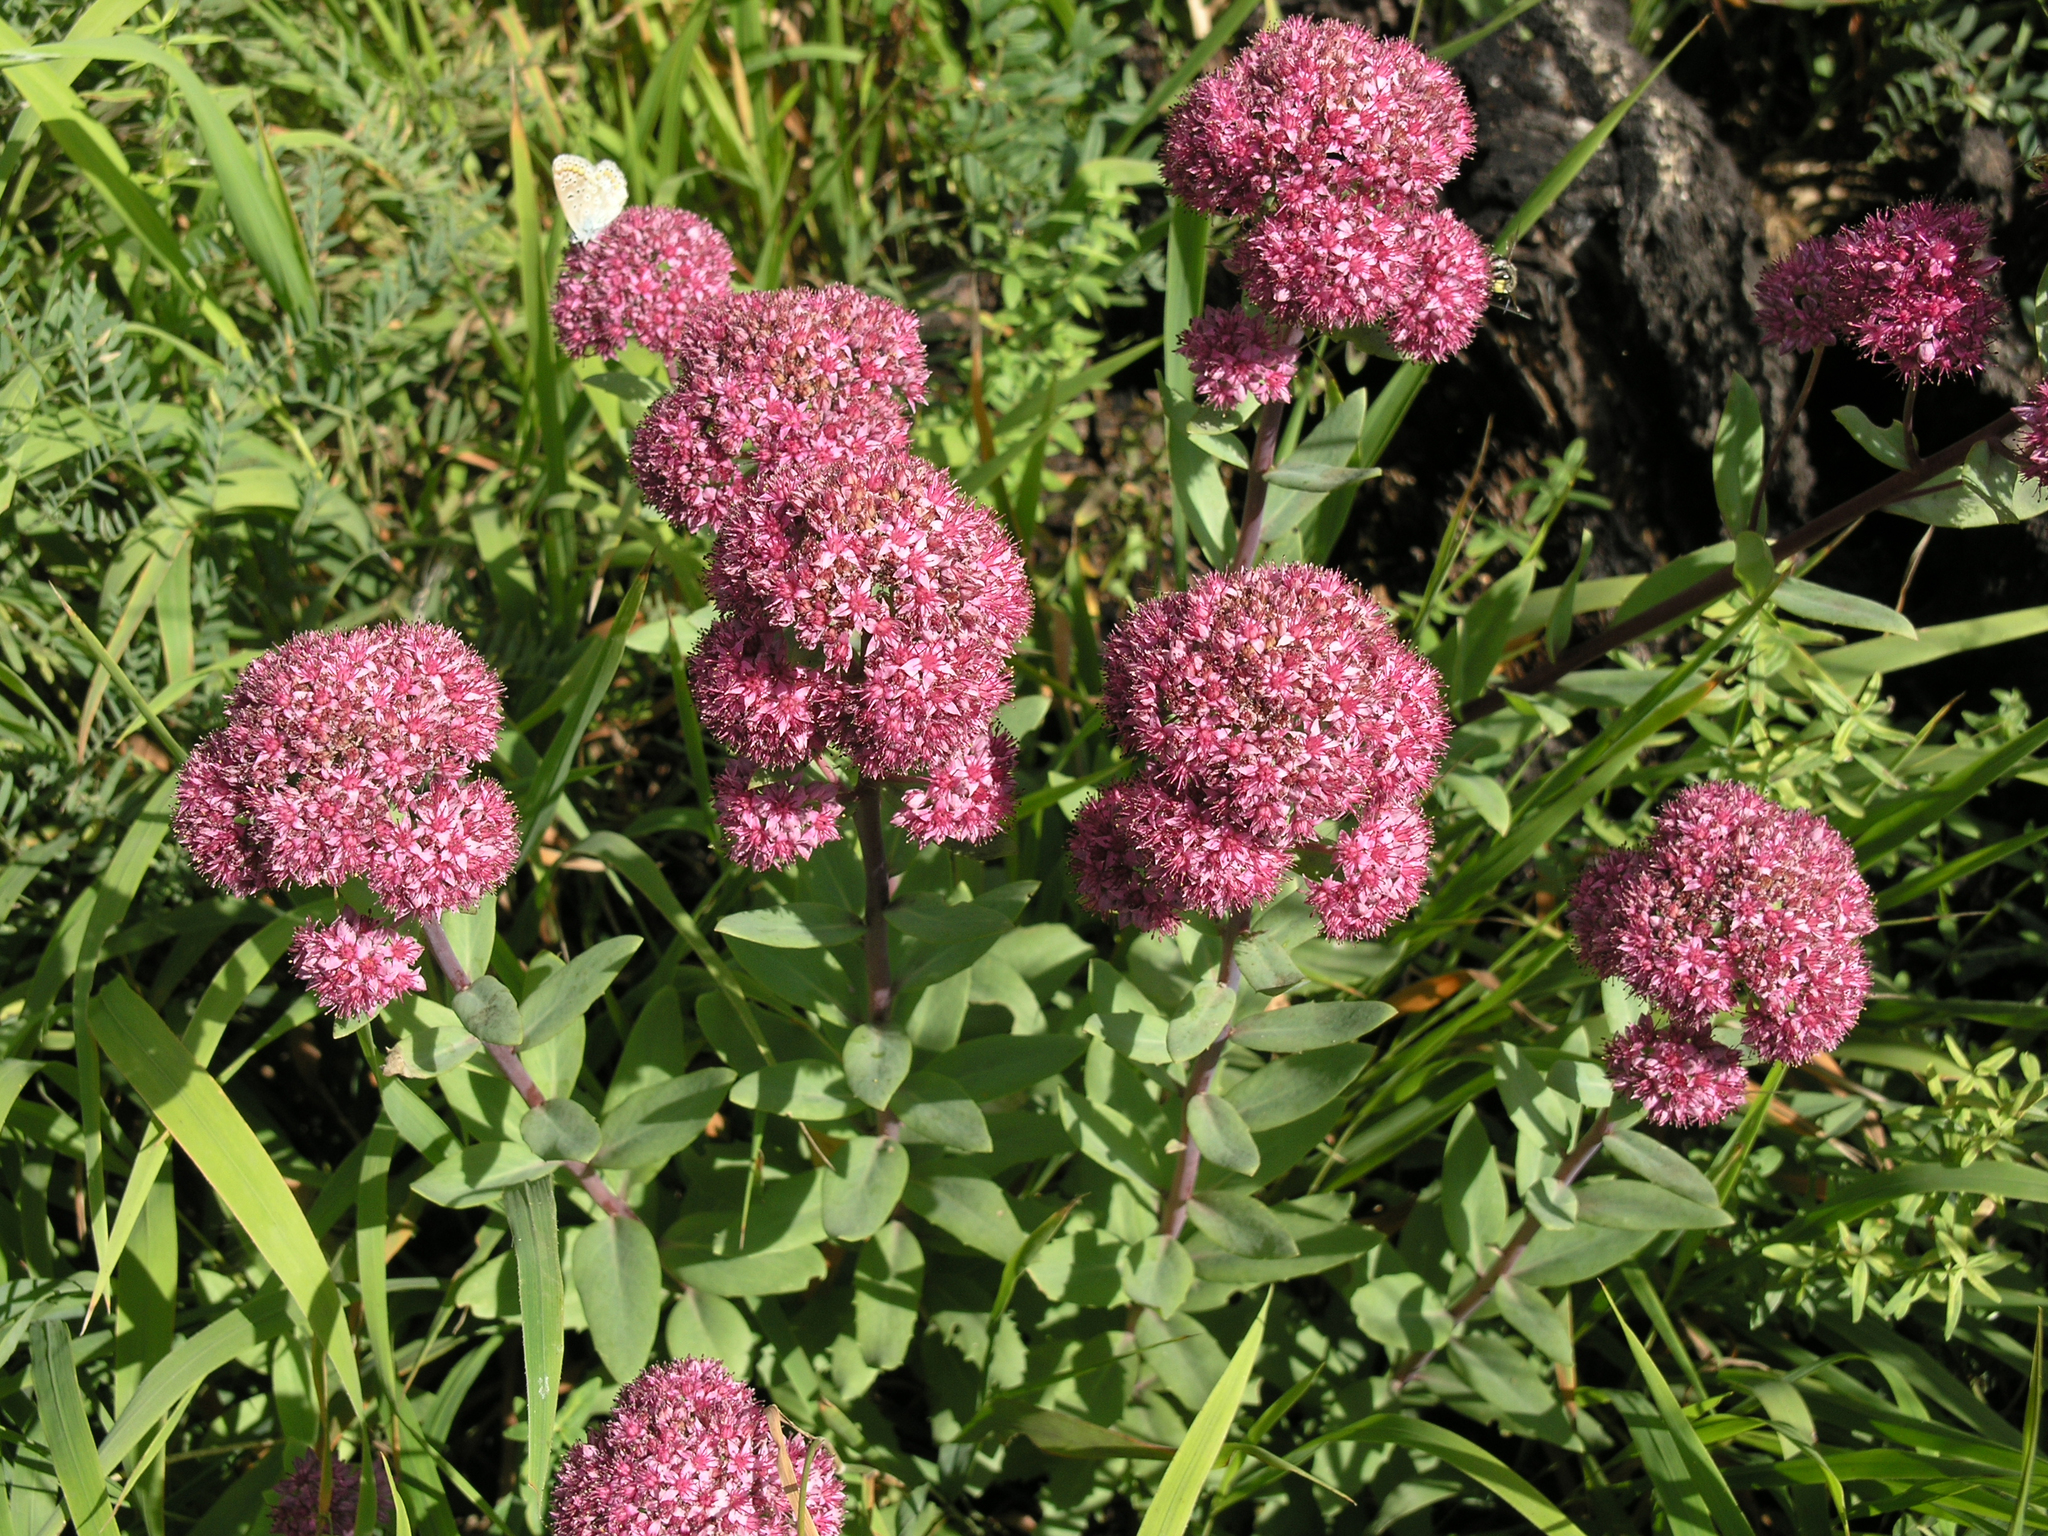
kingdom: Plantae
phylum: Tracheophyta
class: Magnoliopsida
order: Saxifragales
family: Crassulaceae
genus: Hylotelephium
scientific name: Hylotelephium telephium
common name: Live-forever
